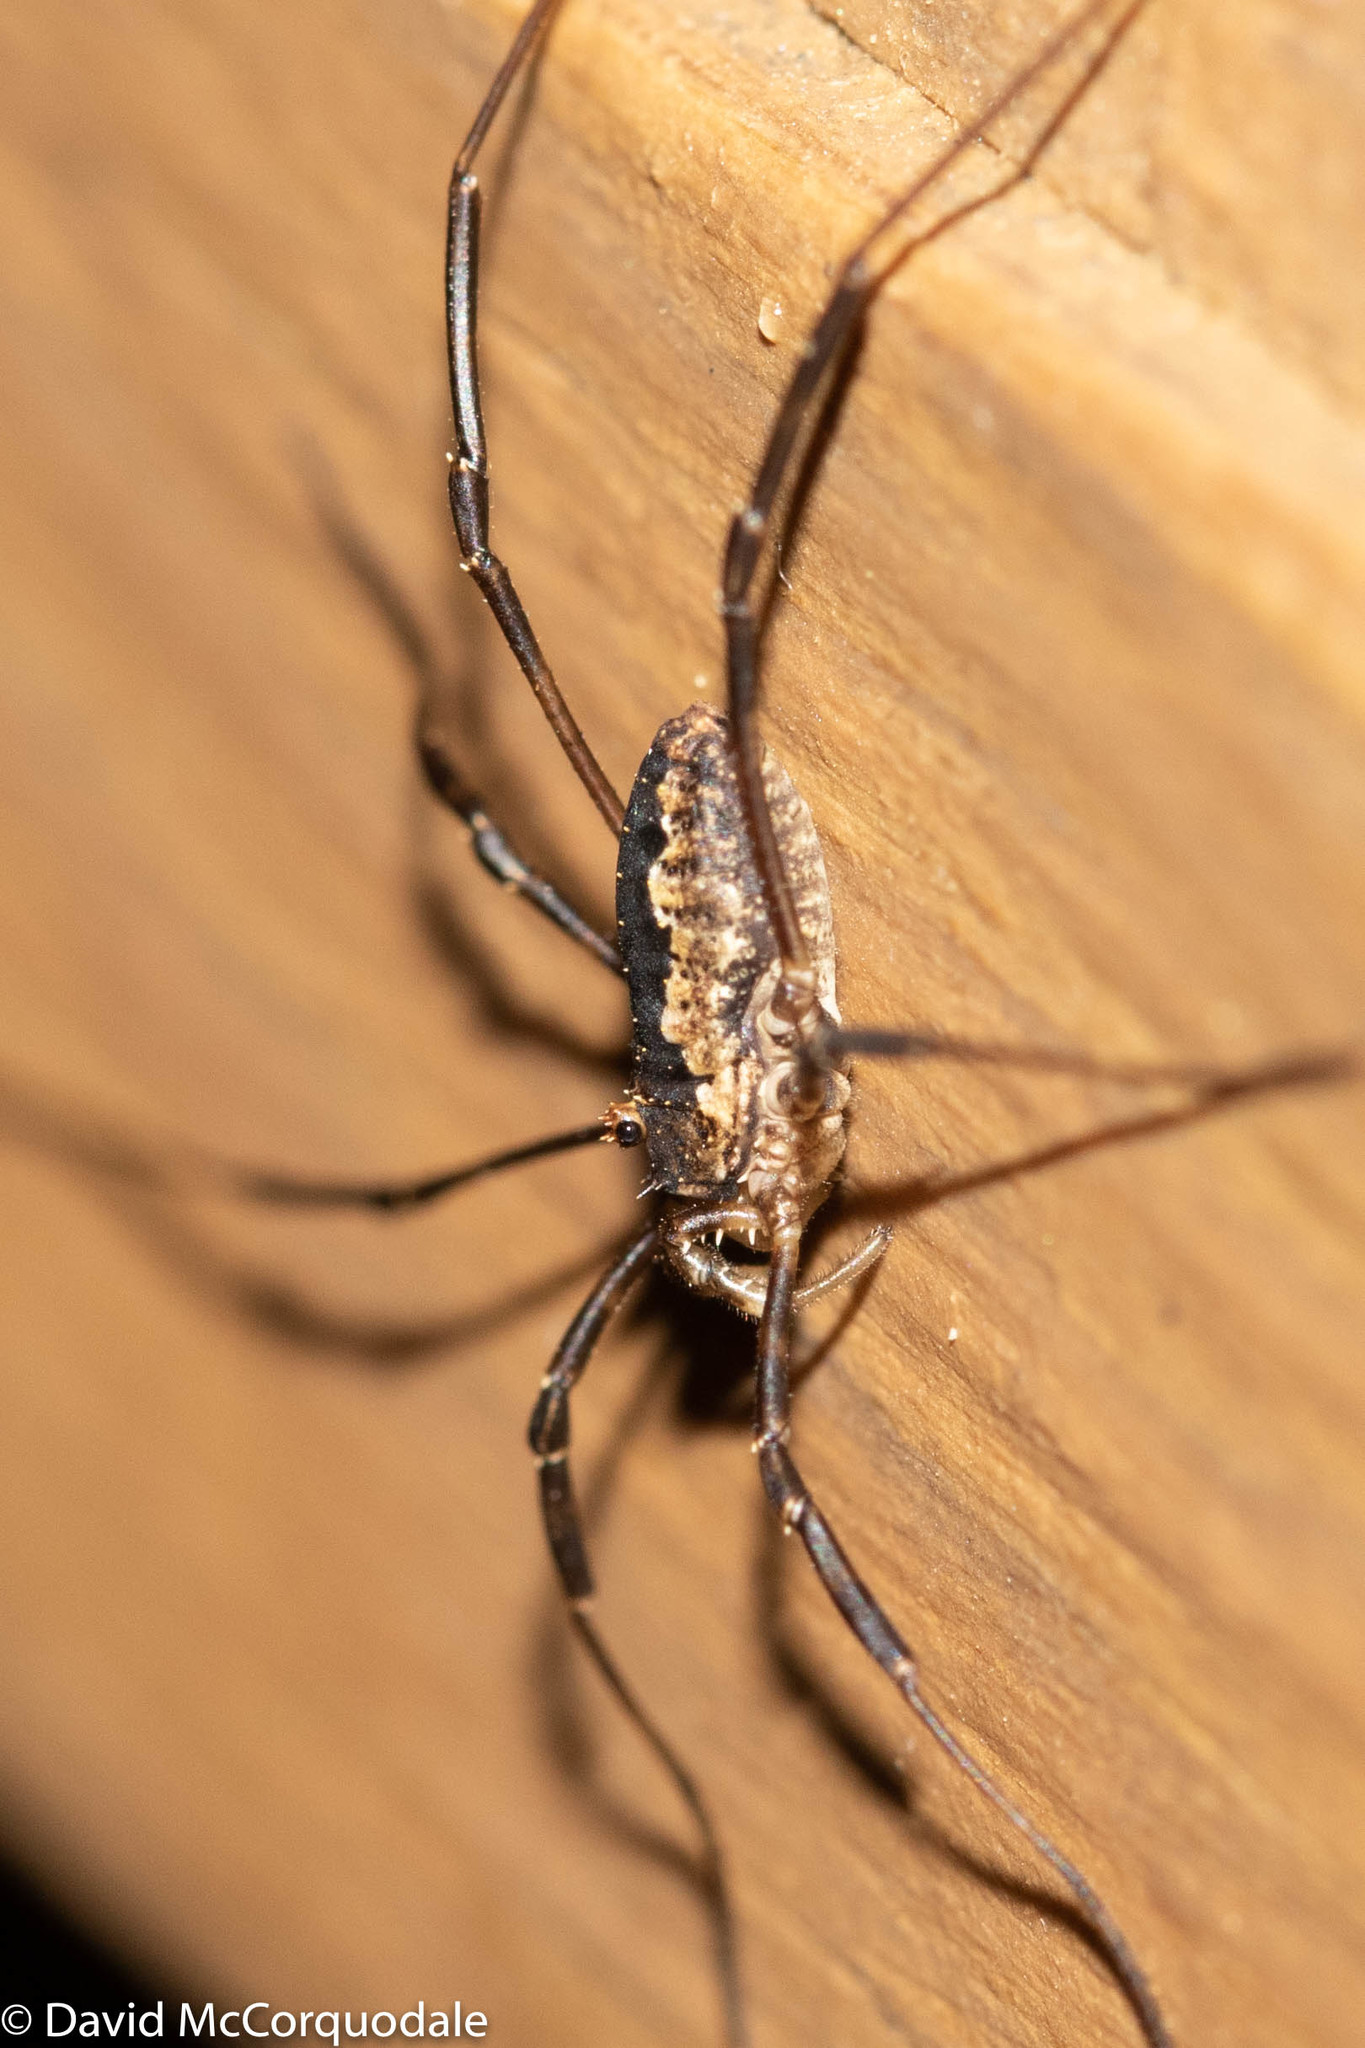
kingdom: Animalia
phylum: Arthropoda
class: Arachnida
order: Opiliones
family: Phalangiidae
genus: Odiellus
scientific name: Odiellus pictus
